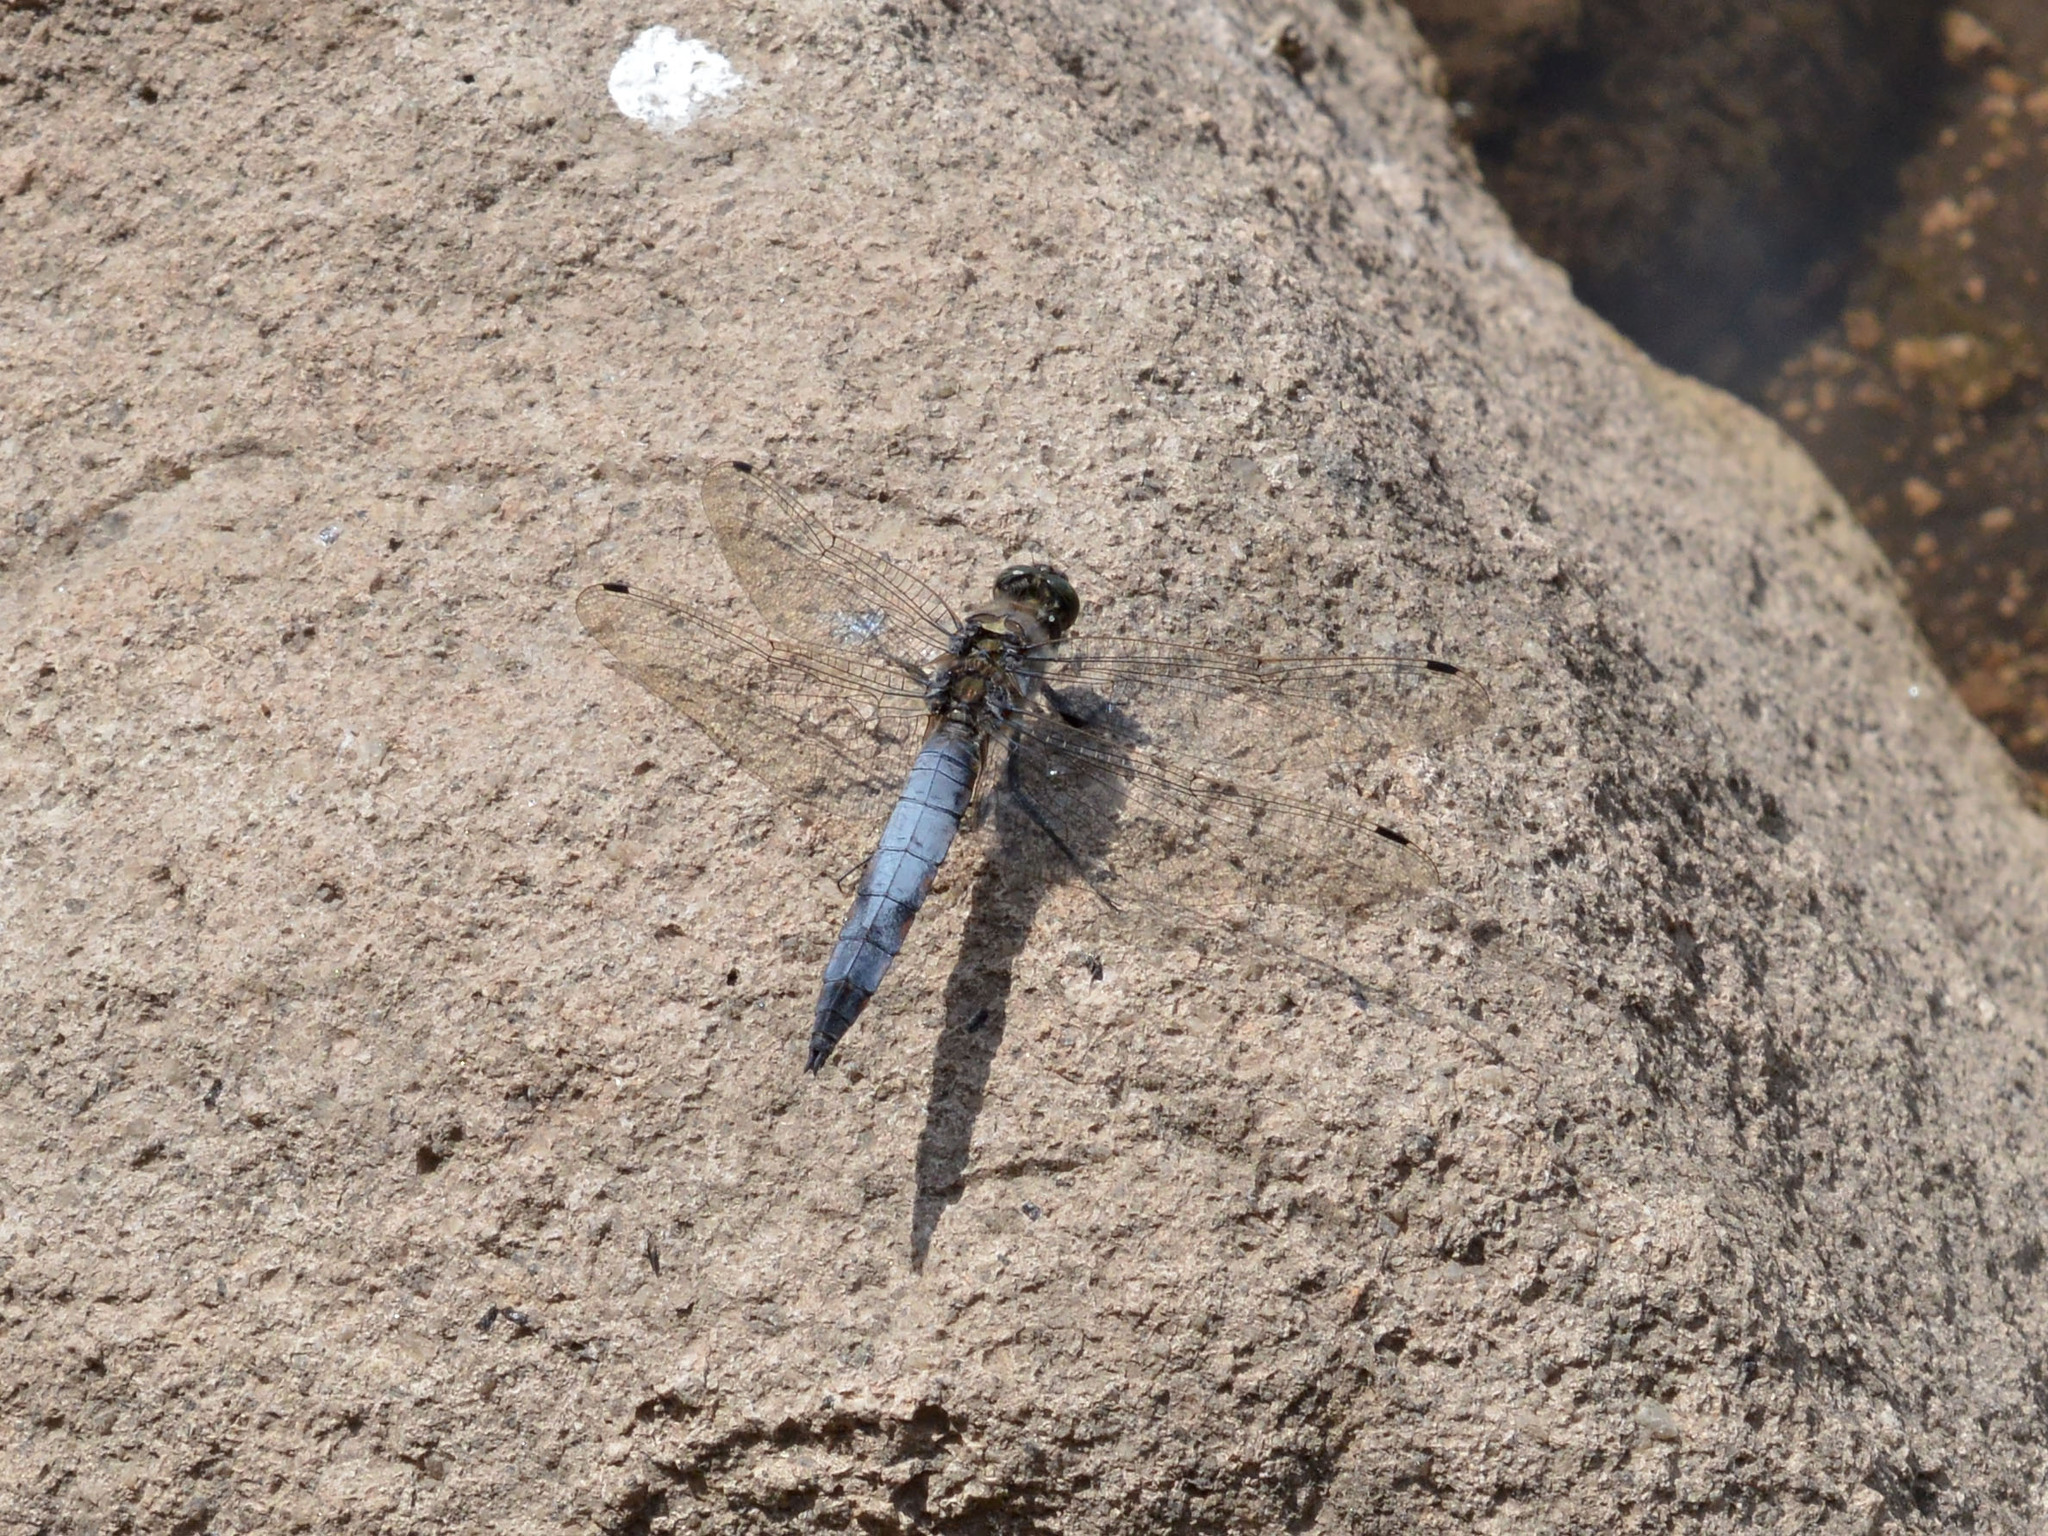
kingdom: Animalia
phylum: Arthropoda
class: Insecta
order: Odonata
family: Libellulidae
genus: Orthetrum
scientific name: Orthetrum cancellatum
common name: Black-tailed skimmer
